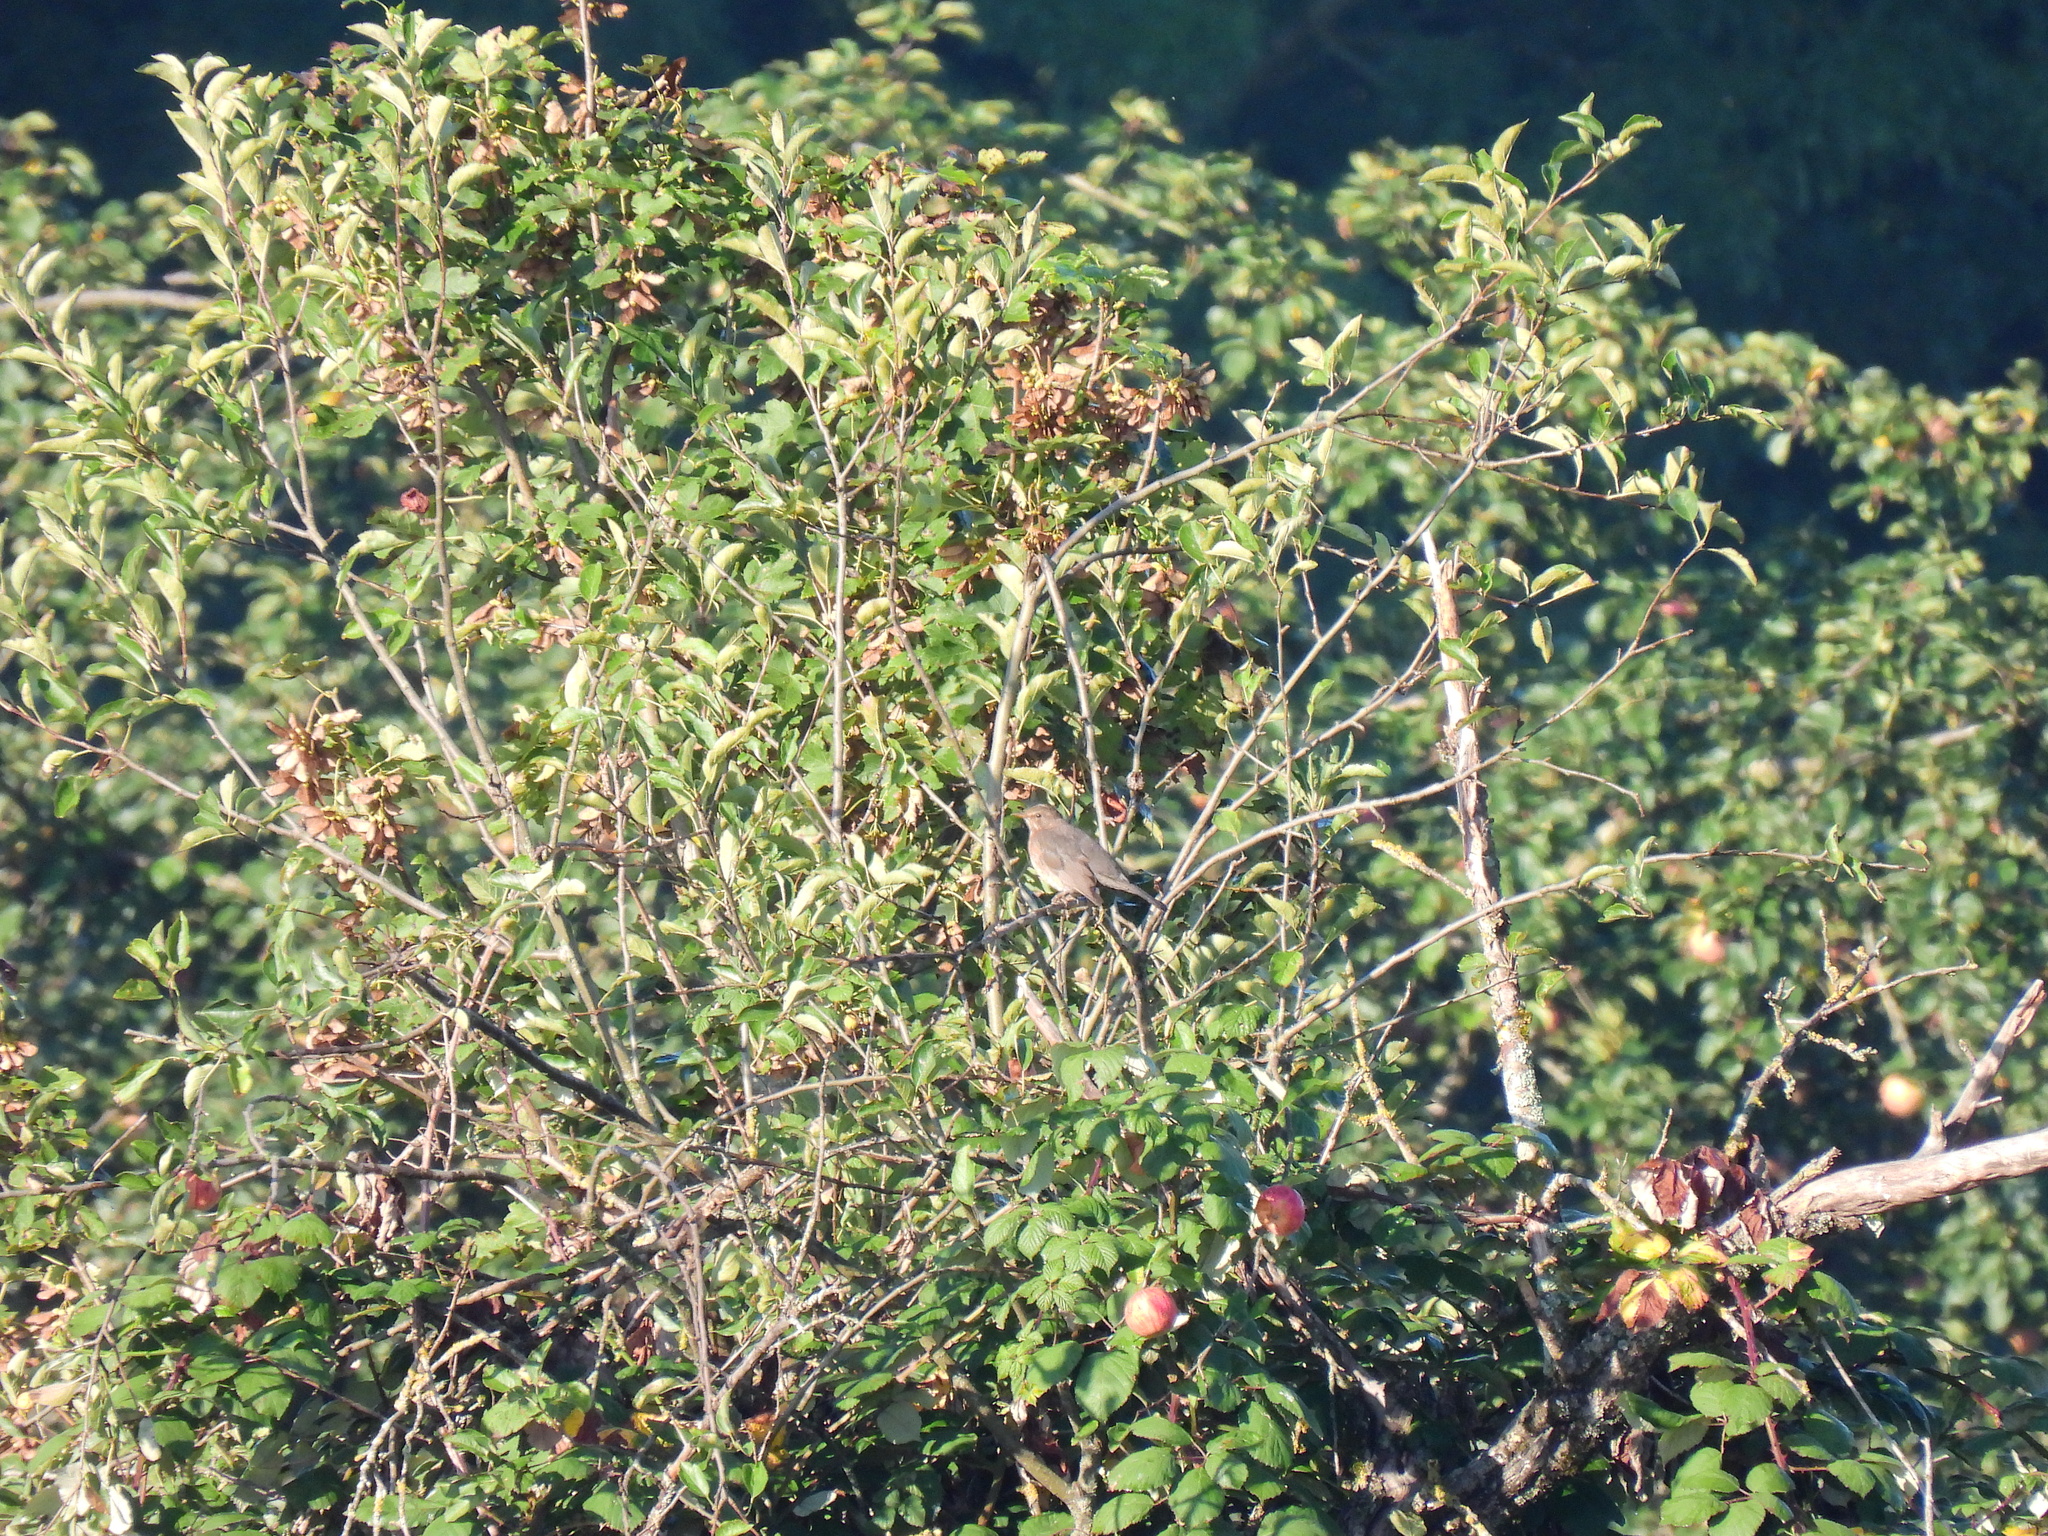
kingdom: Animalia
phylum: Chordata
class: Aves
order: Passeriformes
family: Turdidae
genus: Turdus
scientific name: Turdus merula
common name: Common blackbird
